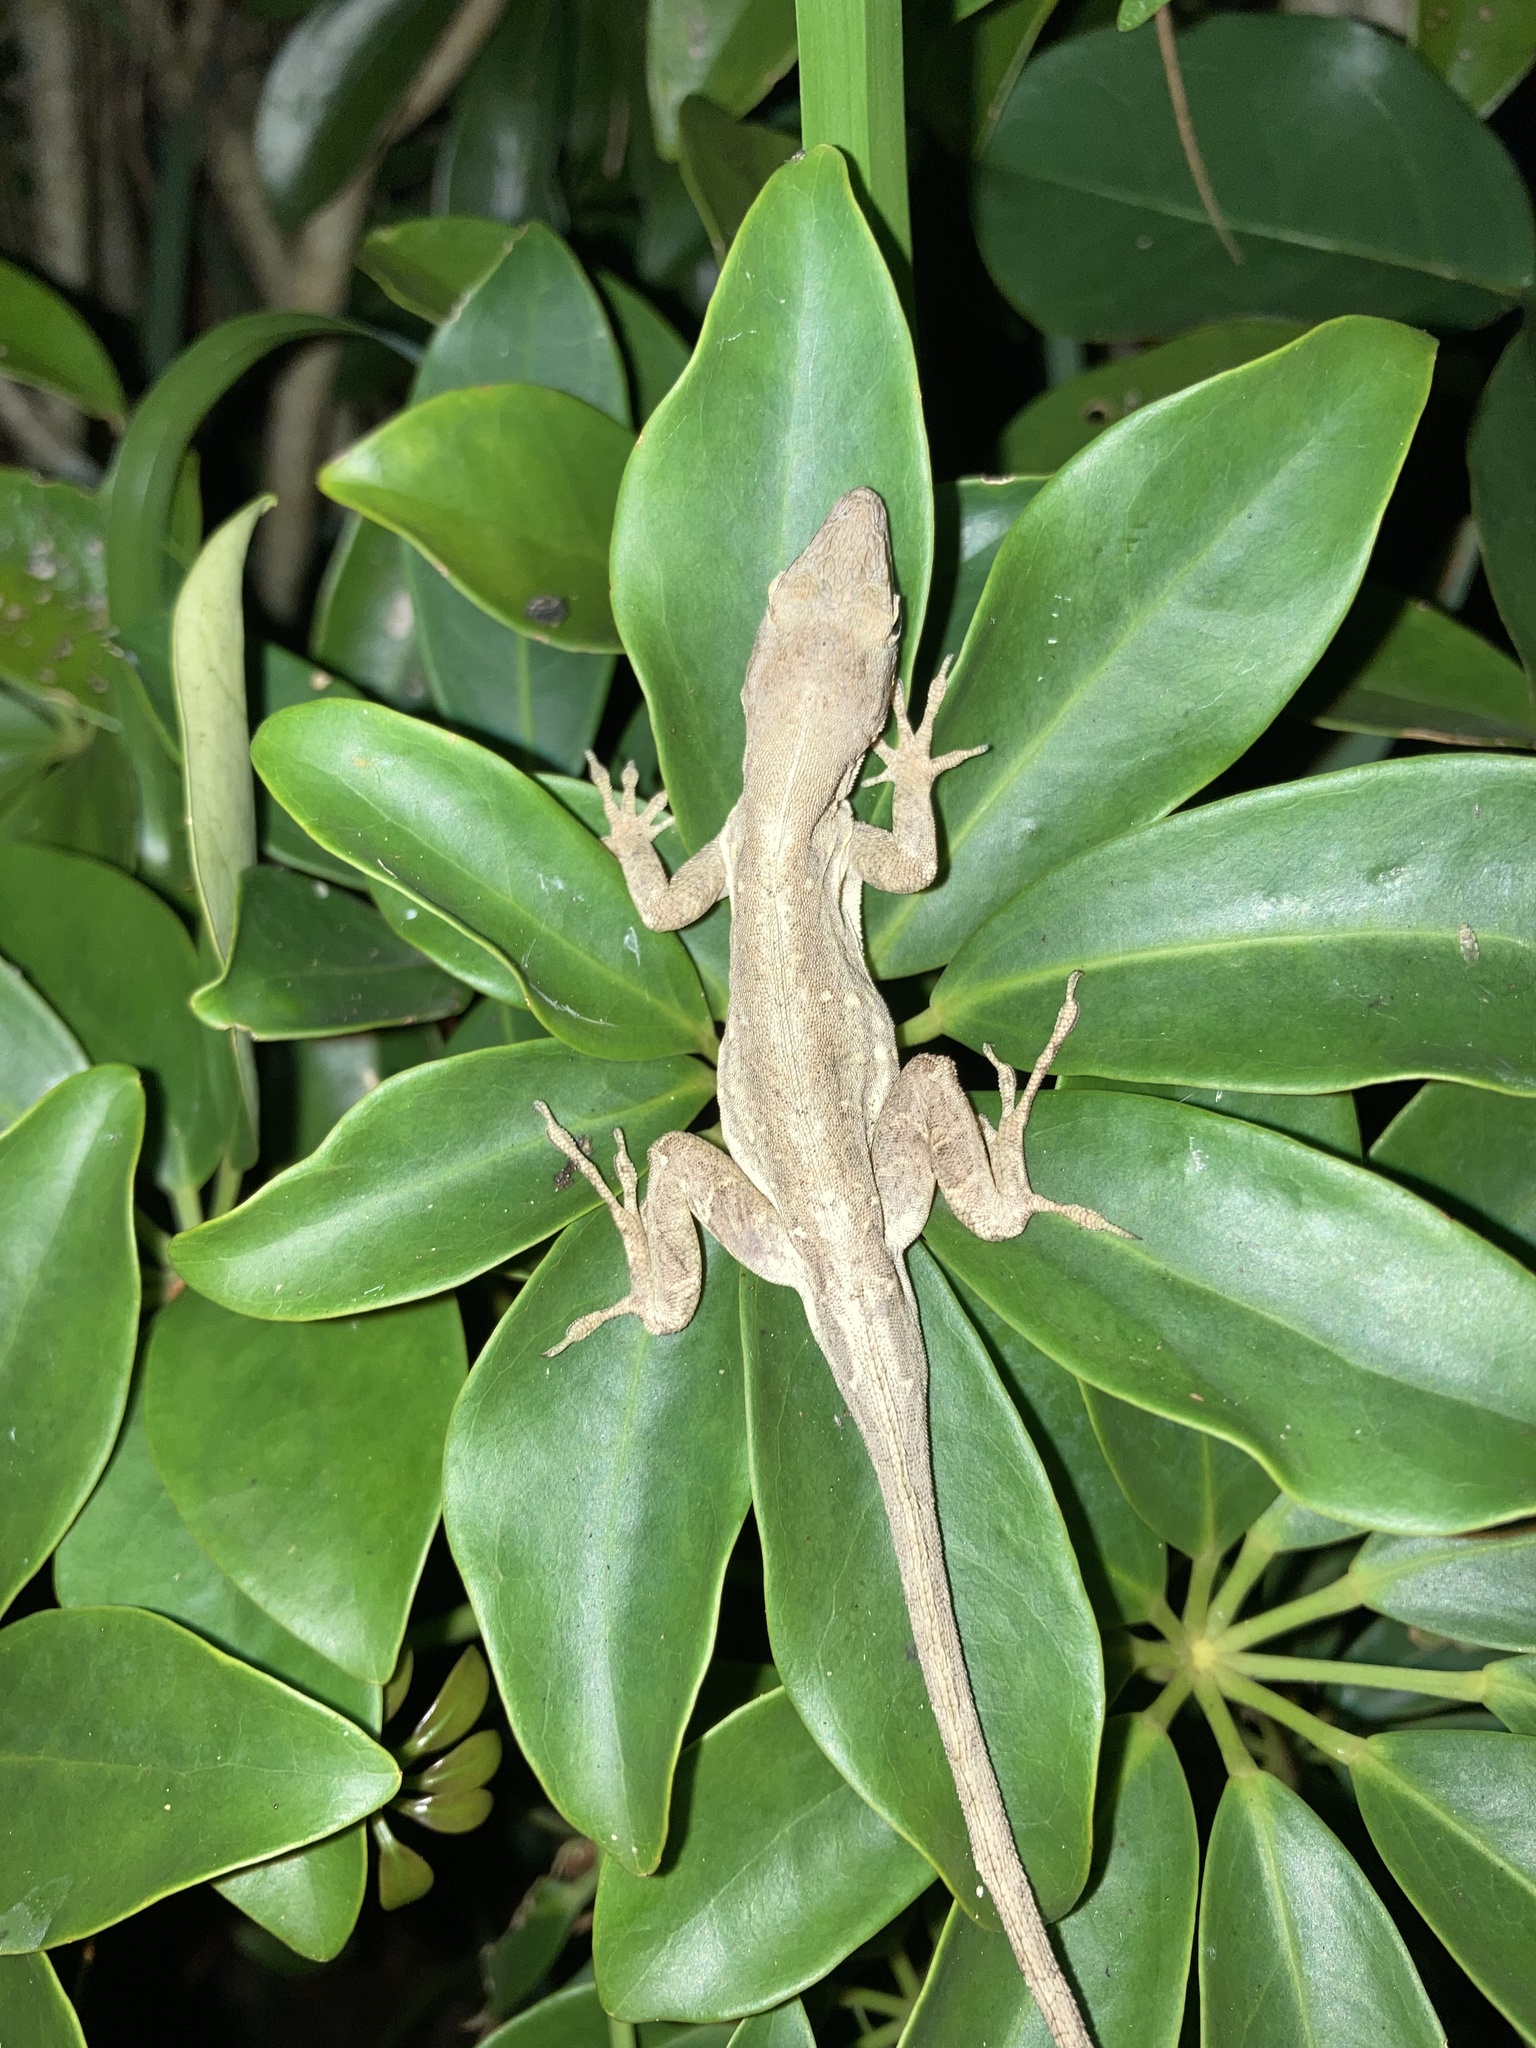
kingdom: Animalia
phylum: Chordata
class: Squamata
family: Dactyloidae
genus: Anolis
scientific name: Anolis sagrei
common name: Brown anole
